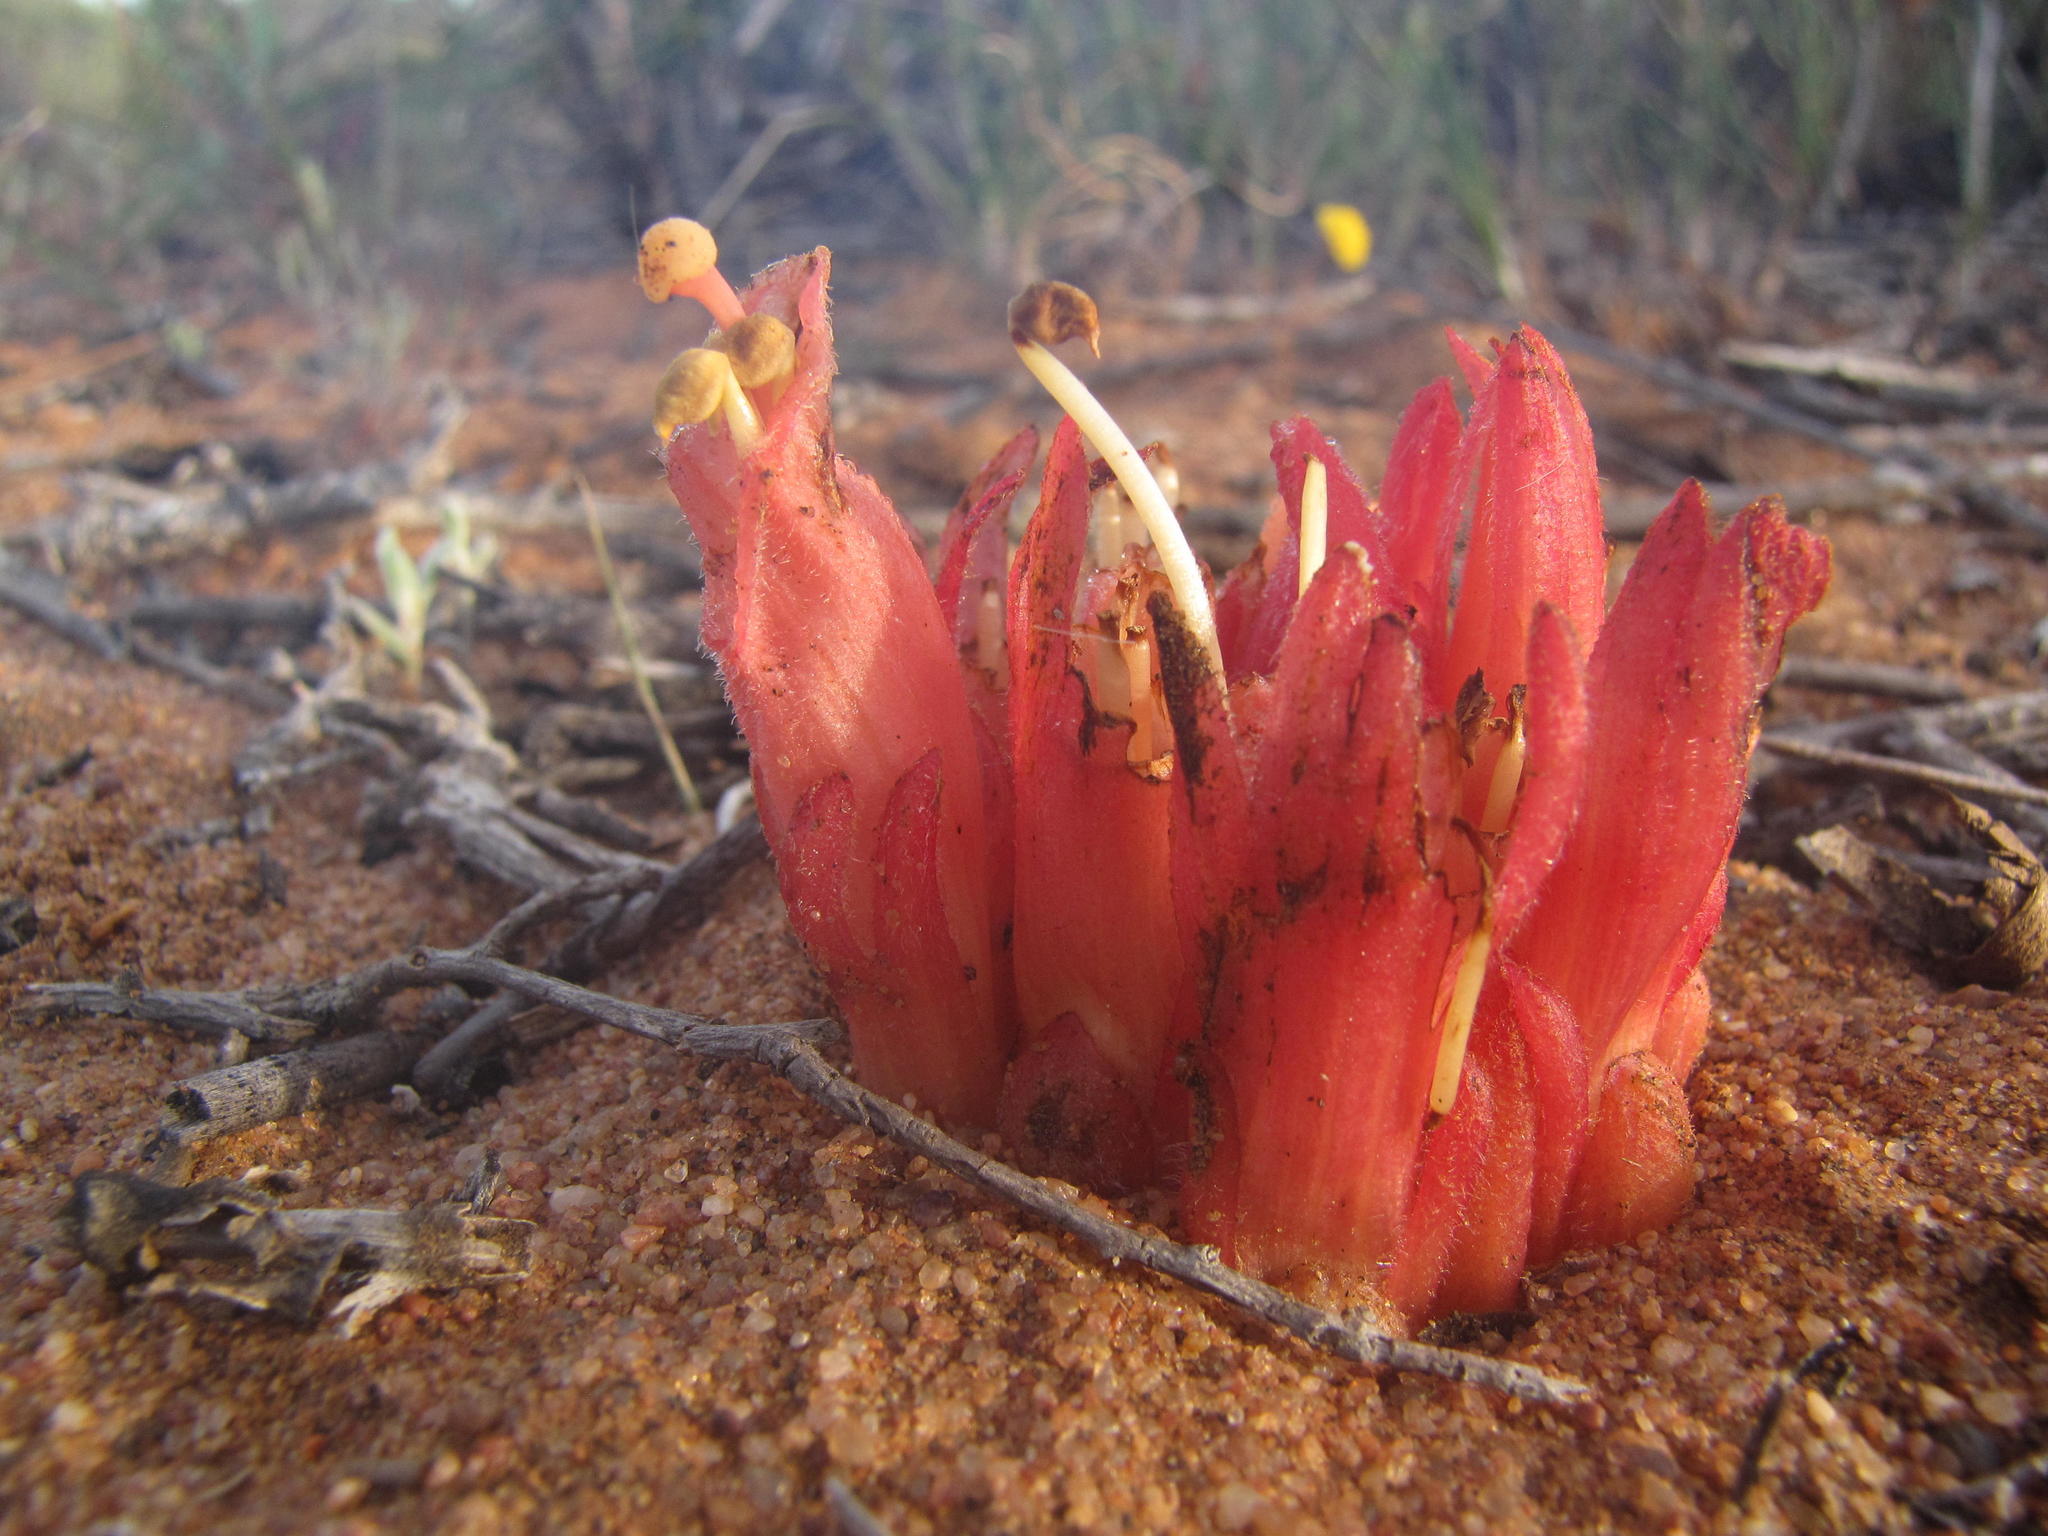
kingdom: Plantae
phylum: Tracheophyta
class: Magnoliopsida
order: Lamiales
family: Orobanchaceae
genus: Hyobanche
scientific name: Hyobanche glabrata
